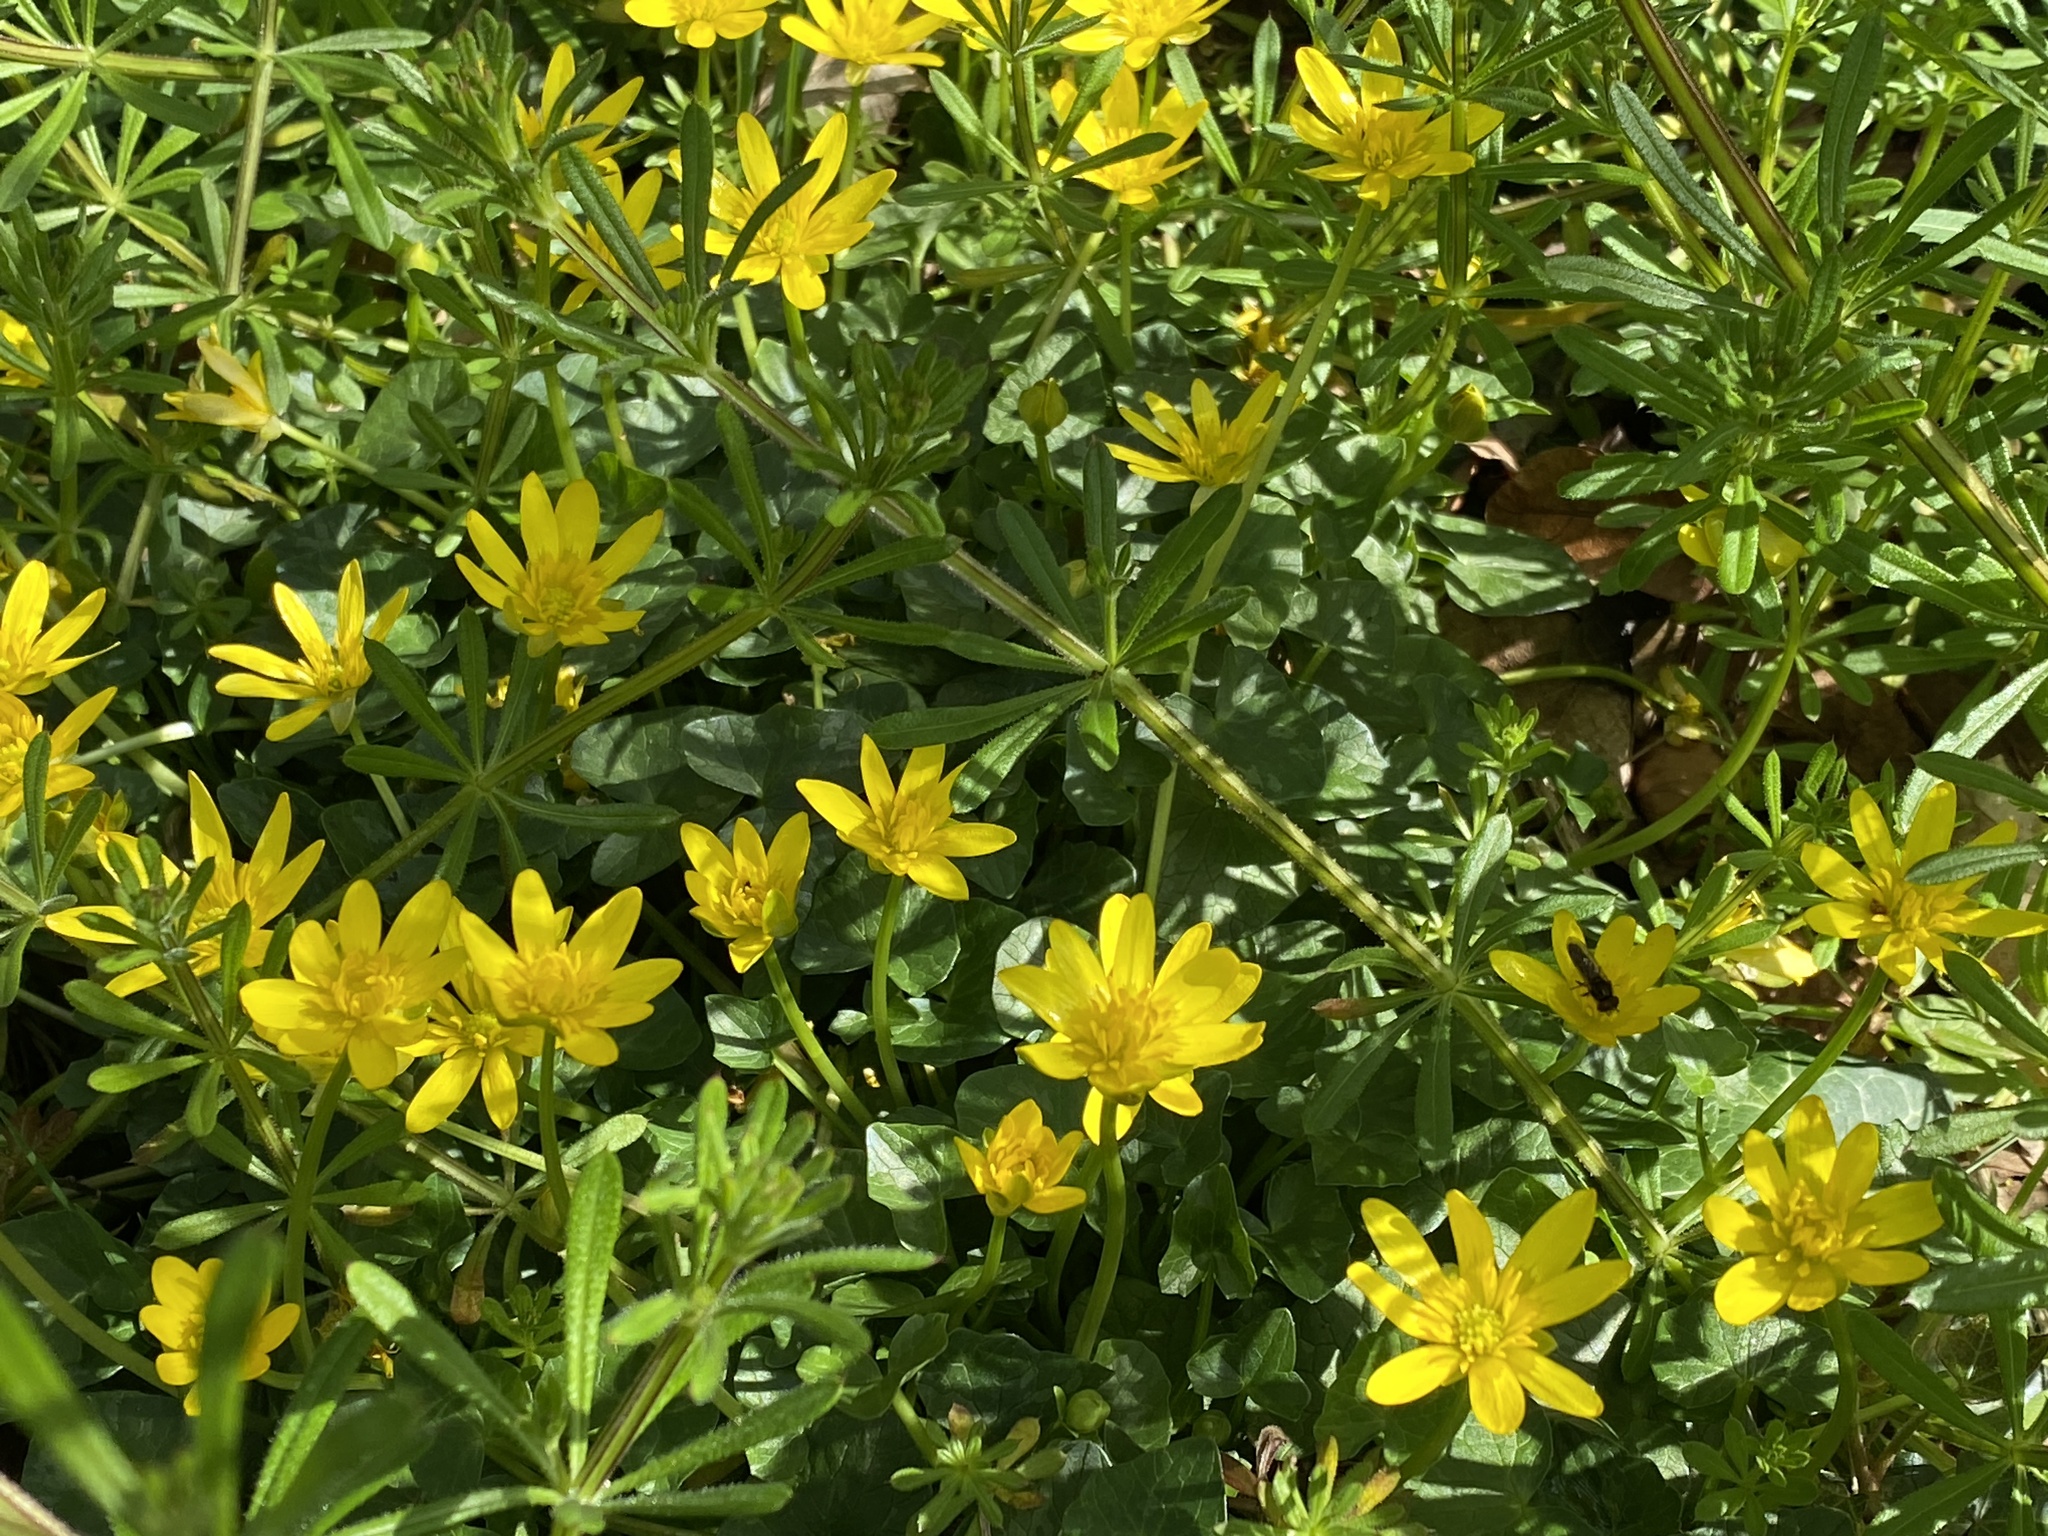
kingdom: Plantae
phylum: Tracheophyta
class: Magnoliopsida
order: Ranunculales
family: Ranunculaceae
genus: Ficaria
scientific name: Ficaria verna
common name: Lesser celandine
